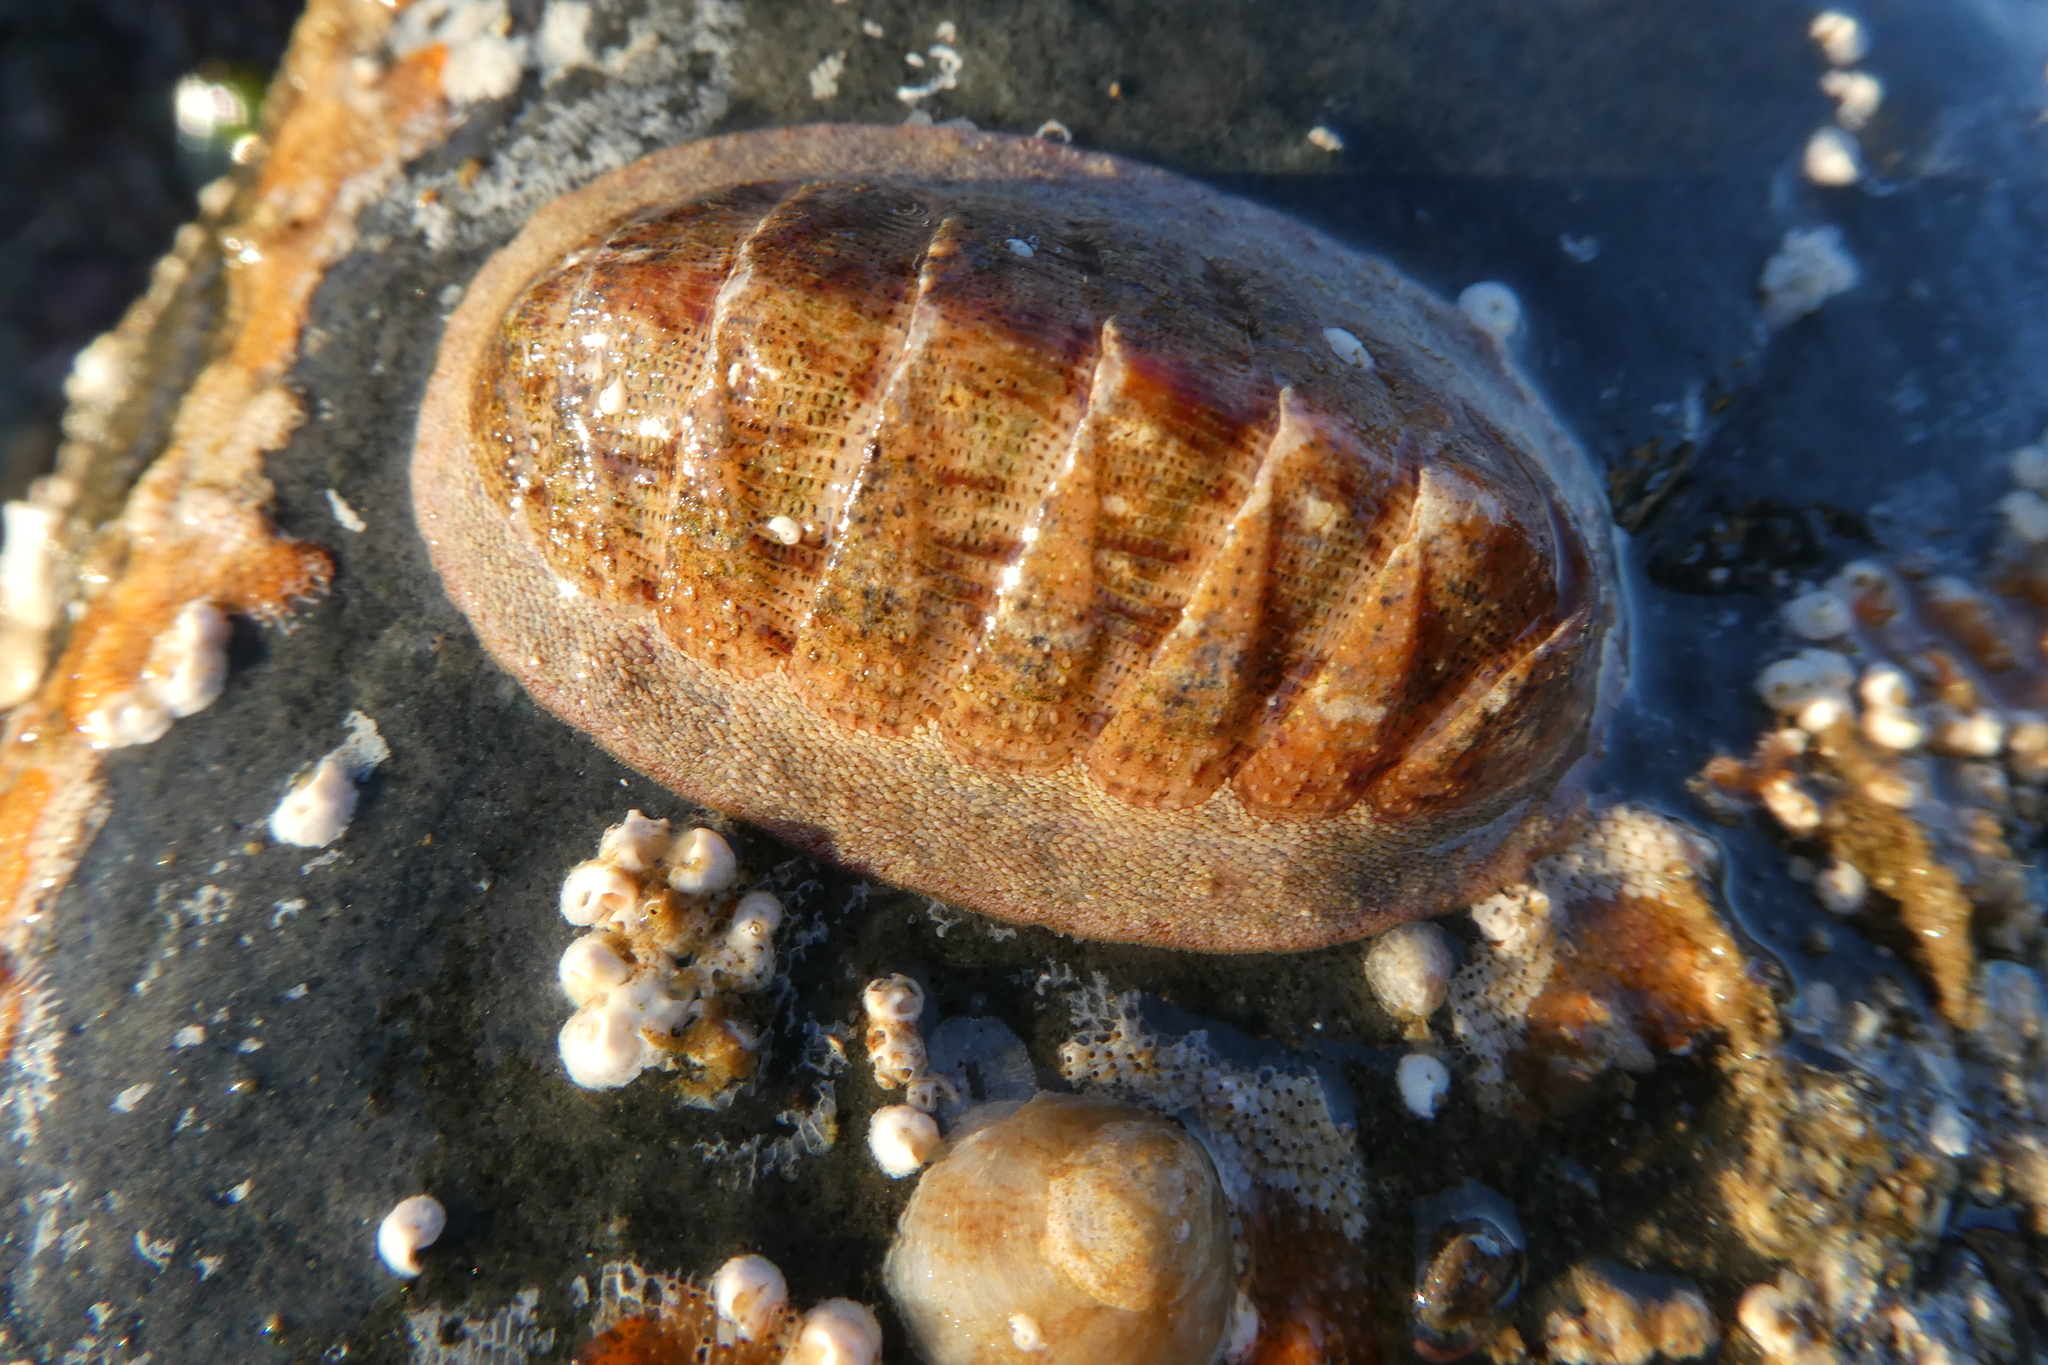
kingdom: Animalia
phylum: Mollusca
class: Polyplacophora
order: Chitonida
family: Ischnochitonidae
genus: Lepidozona
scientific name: Lepidozona mertensii
